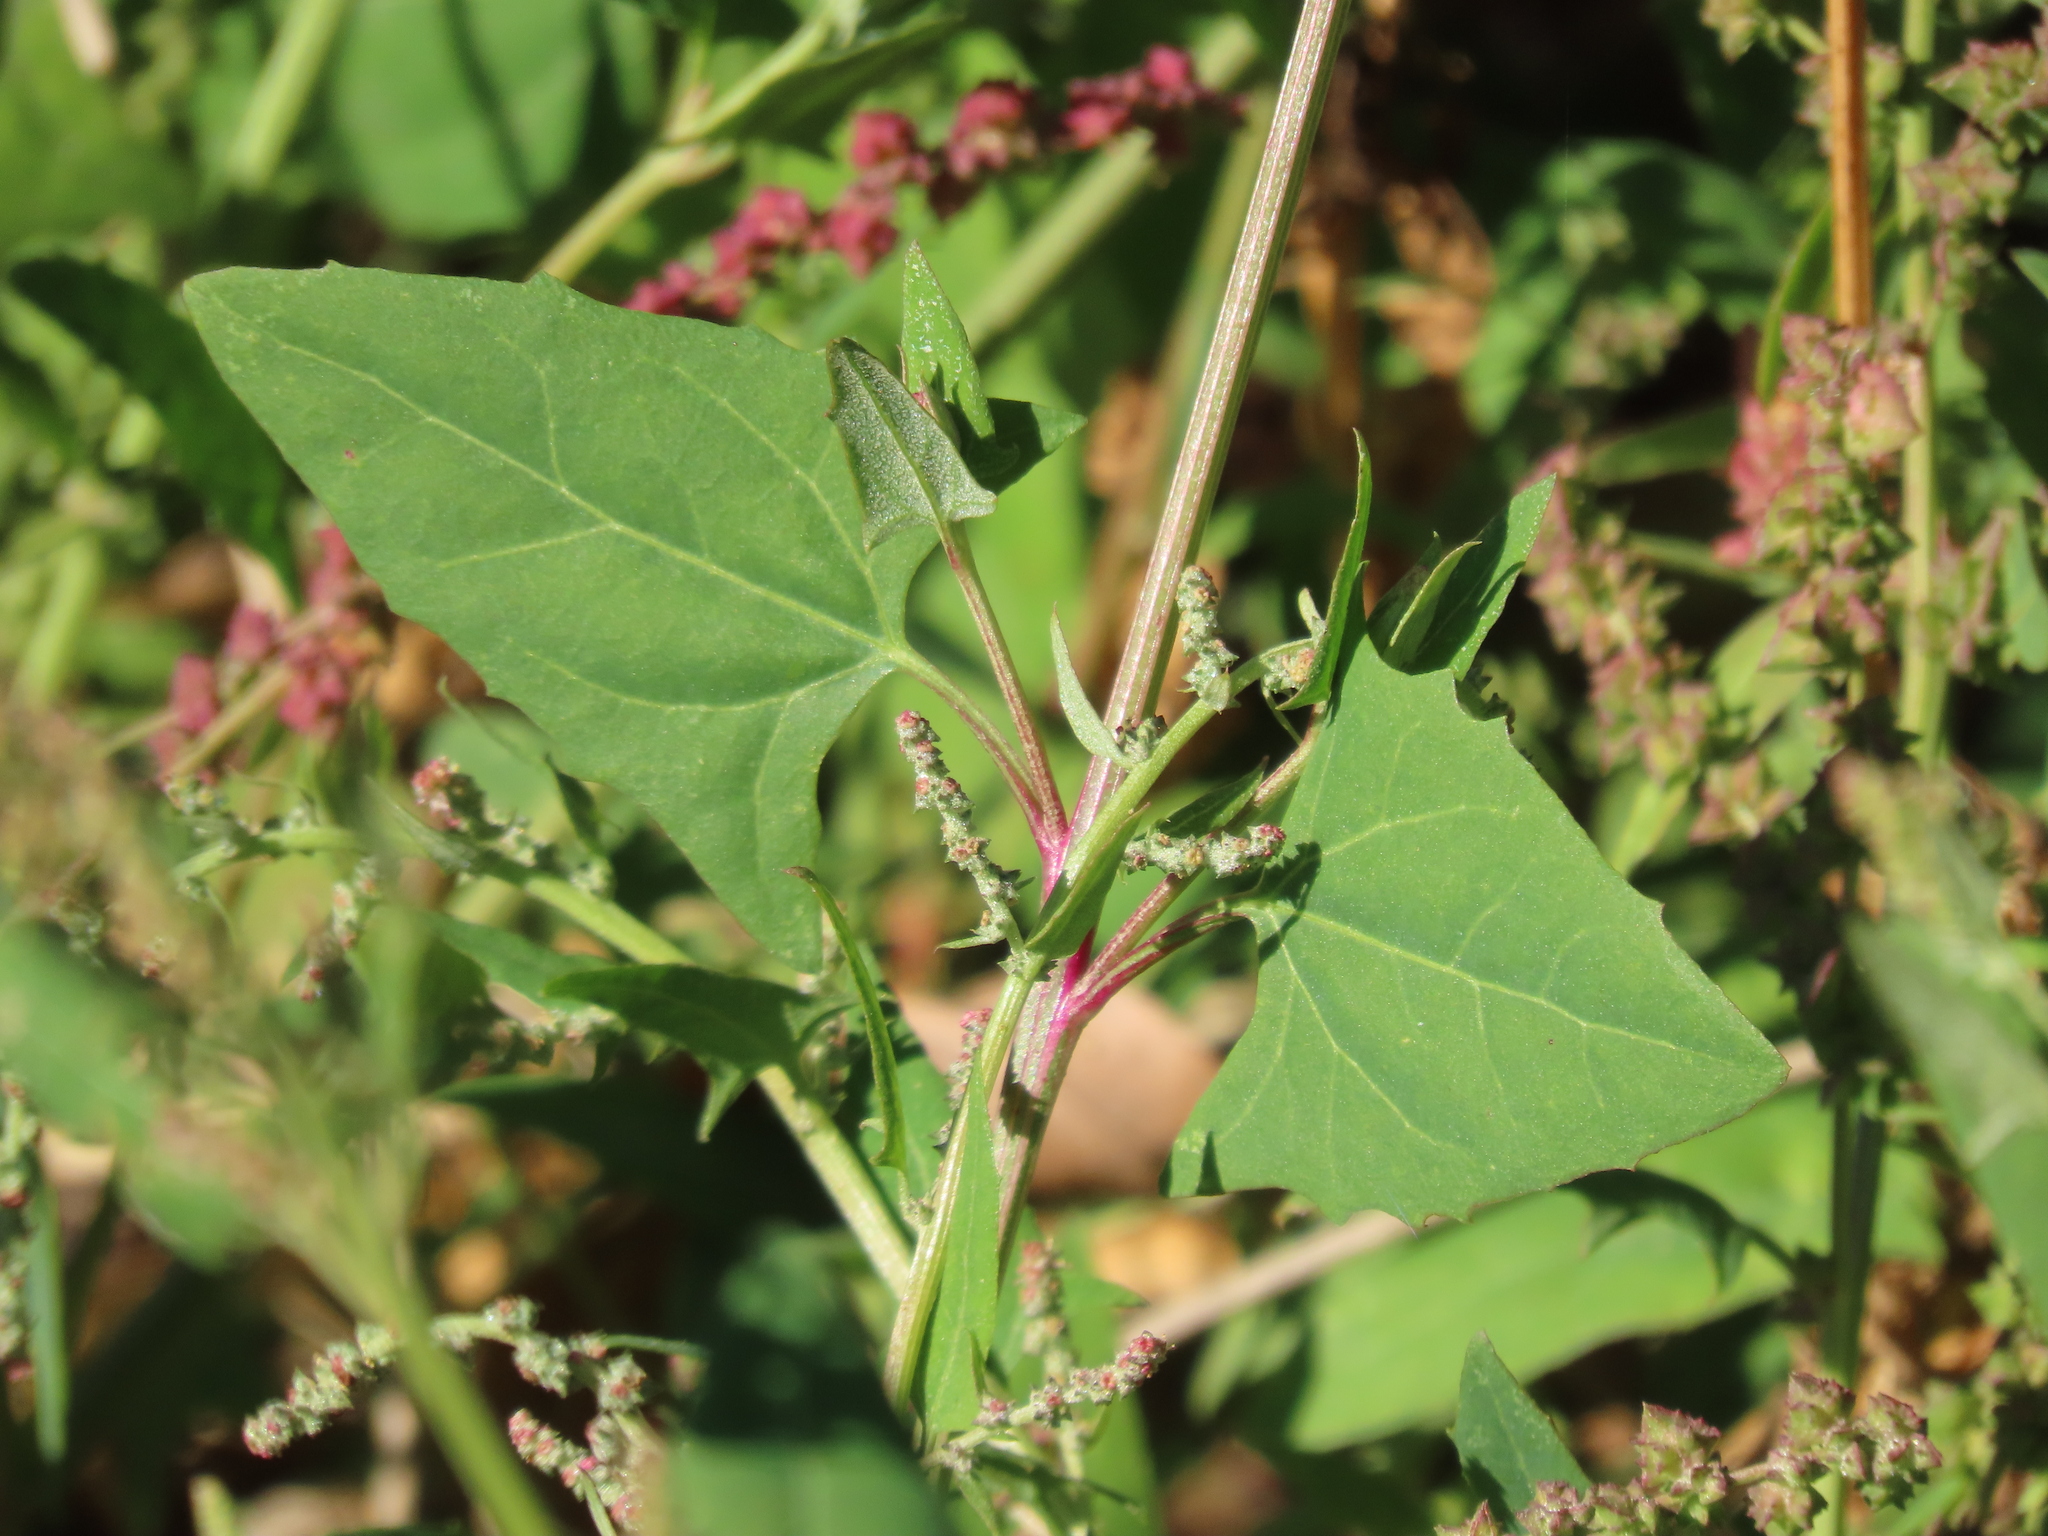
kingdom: Plantae
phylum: Tracheophyta
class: Magnoliopsida
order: Caryophyllales
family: Amaranthaceae
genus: Atriplex
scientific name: Atriplex prostrata
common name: Spear-leaved orache
